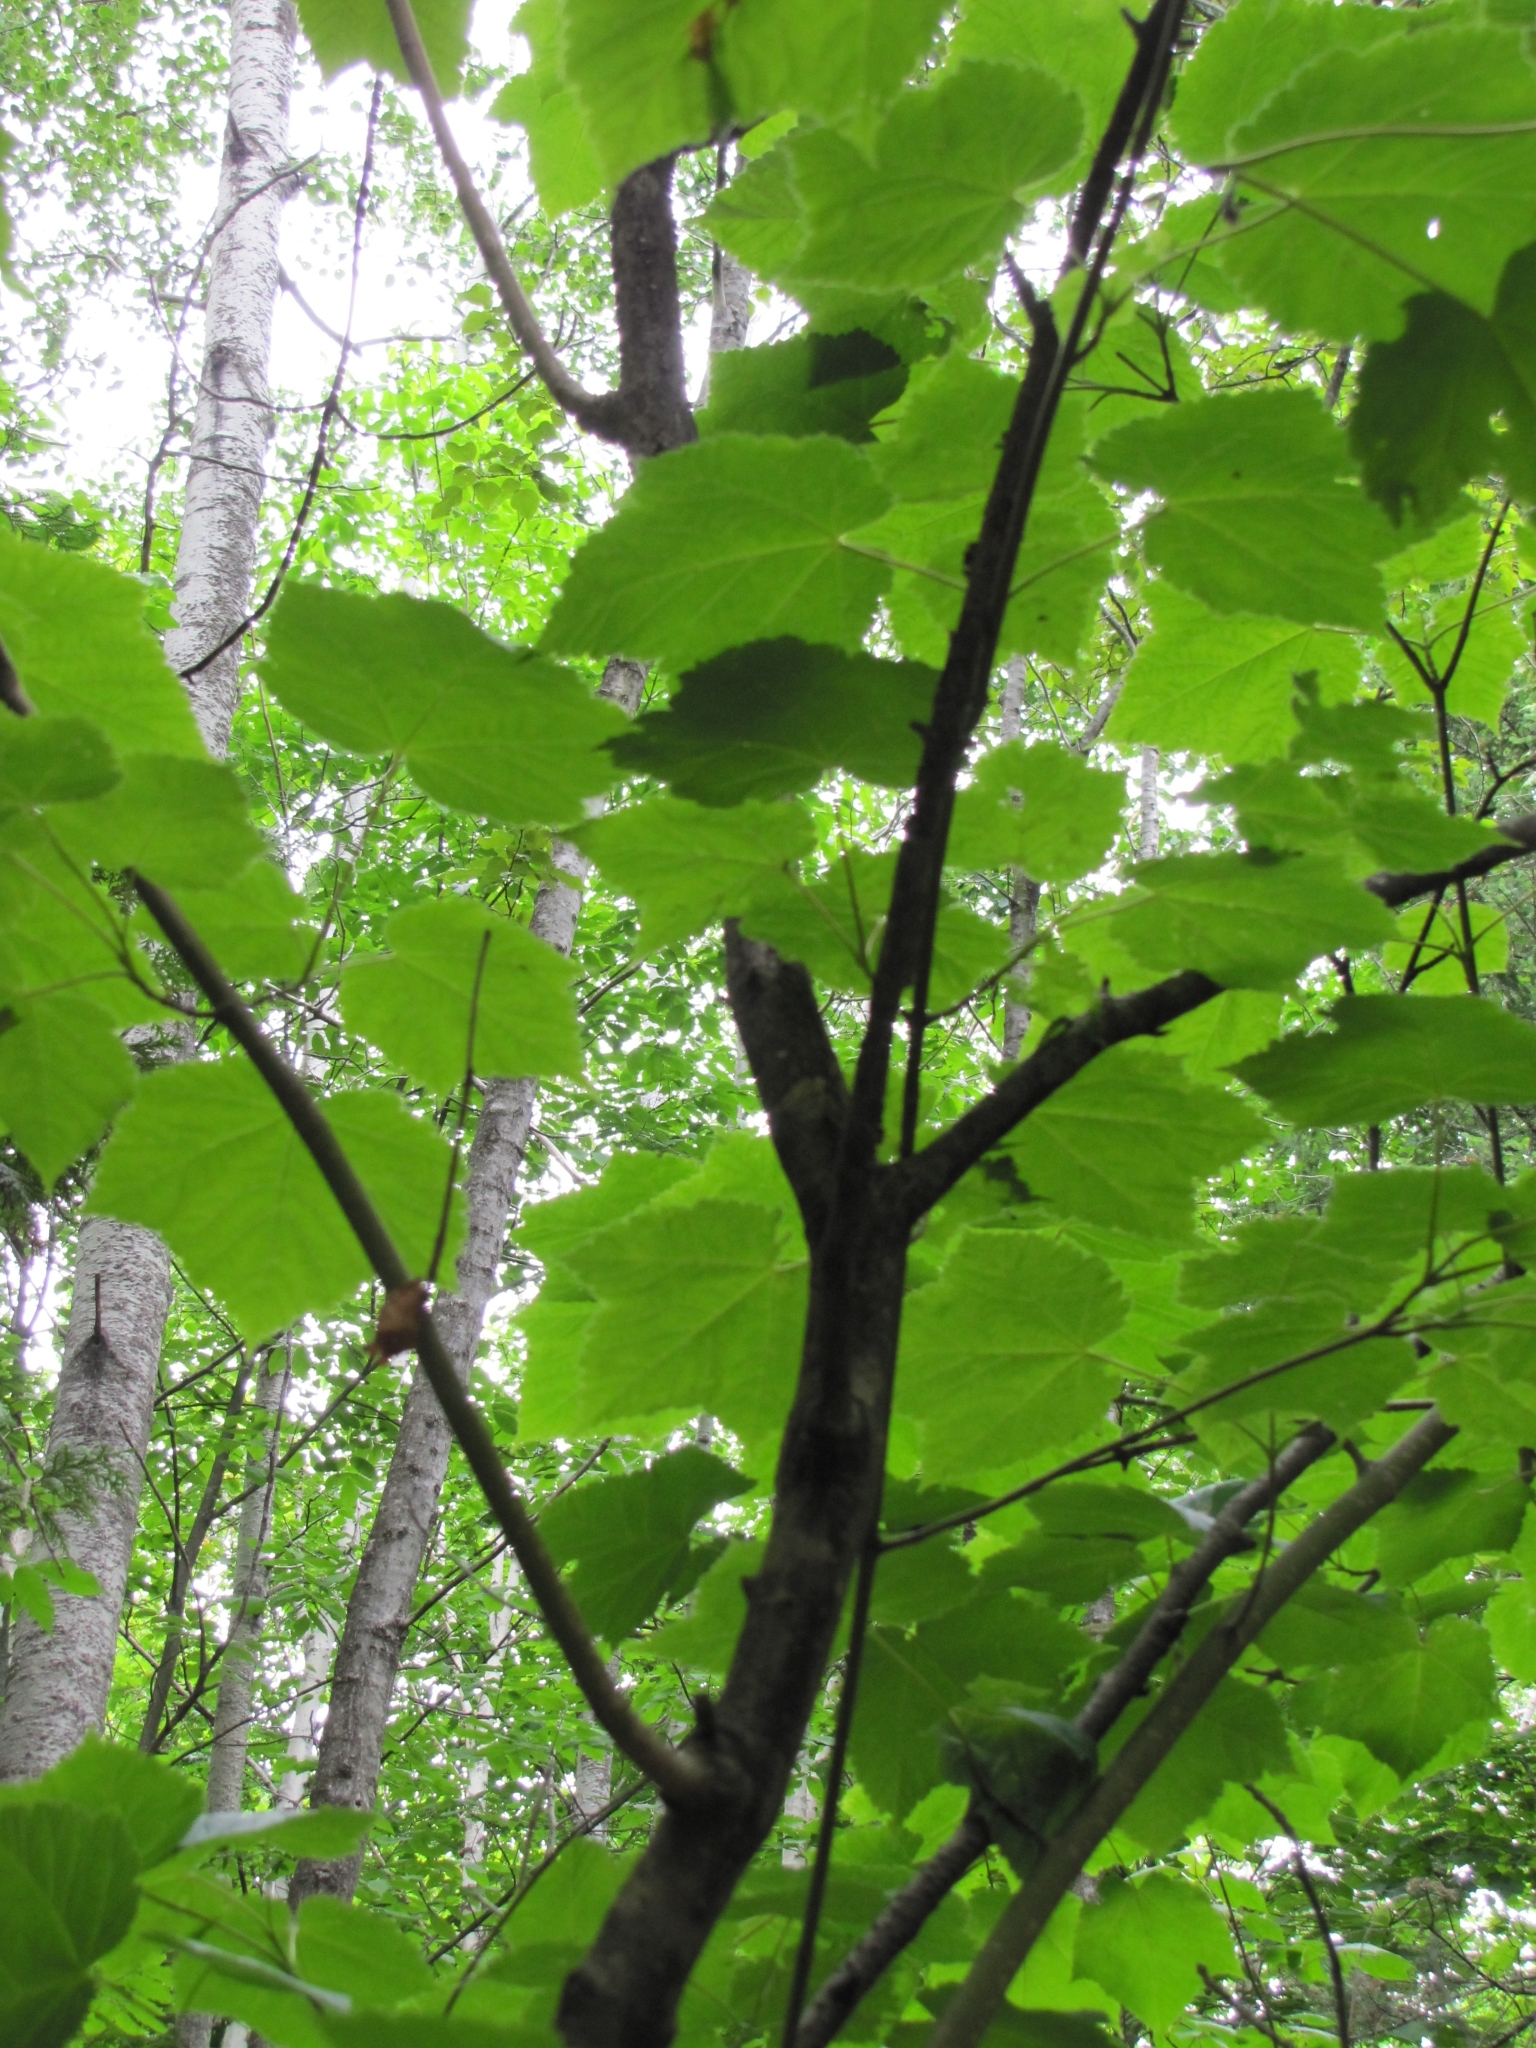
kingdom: Plantae
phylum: Tracheophyta
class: Magnoliopsida
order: Sapindales
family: Sapindaceae
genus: Acer
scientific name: Acer spicatum
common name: Mountain maple
